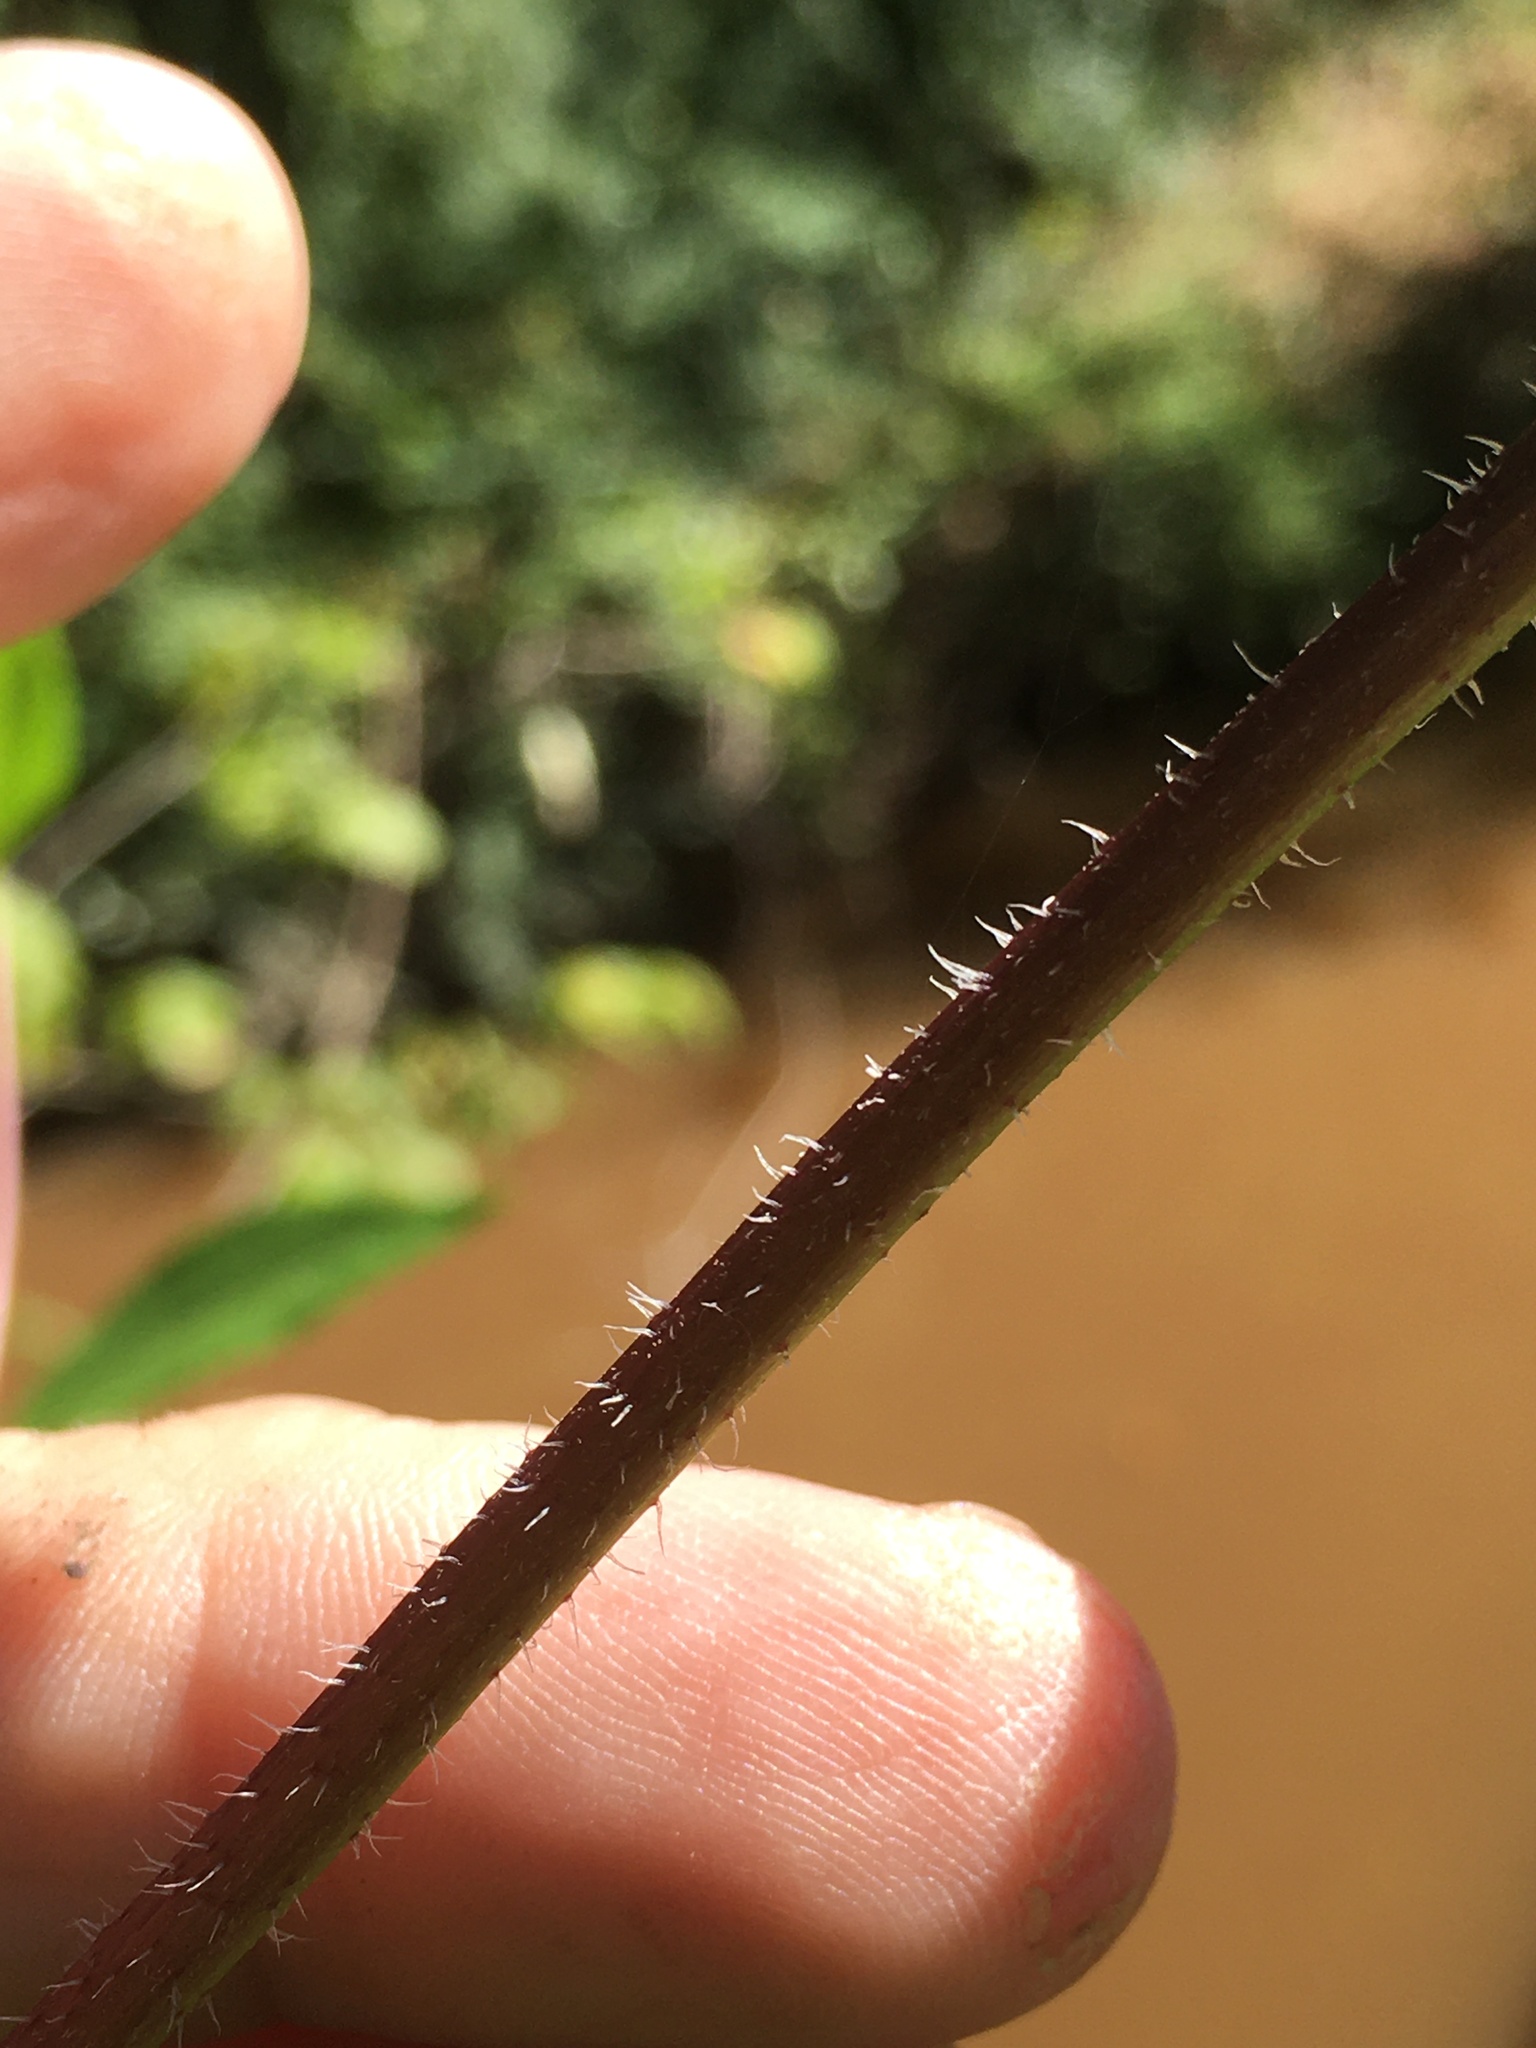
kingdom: Plantae
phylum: Tracheophyta
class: Magnoliopsida
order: Asterales
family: Asteraceae
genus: Helianthus
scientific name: Helianthus tuberosus
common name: Jerusalem artichoke
